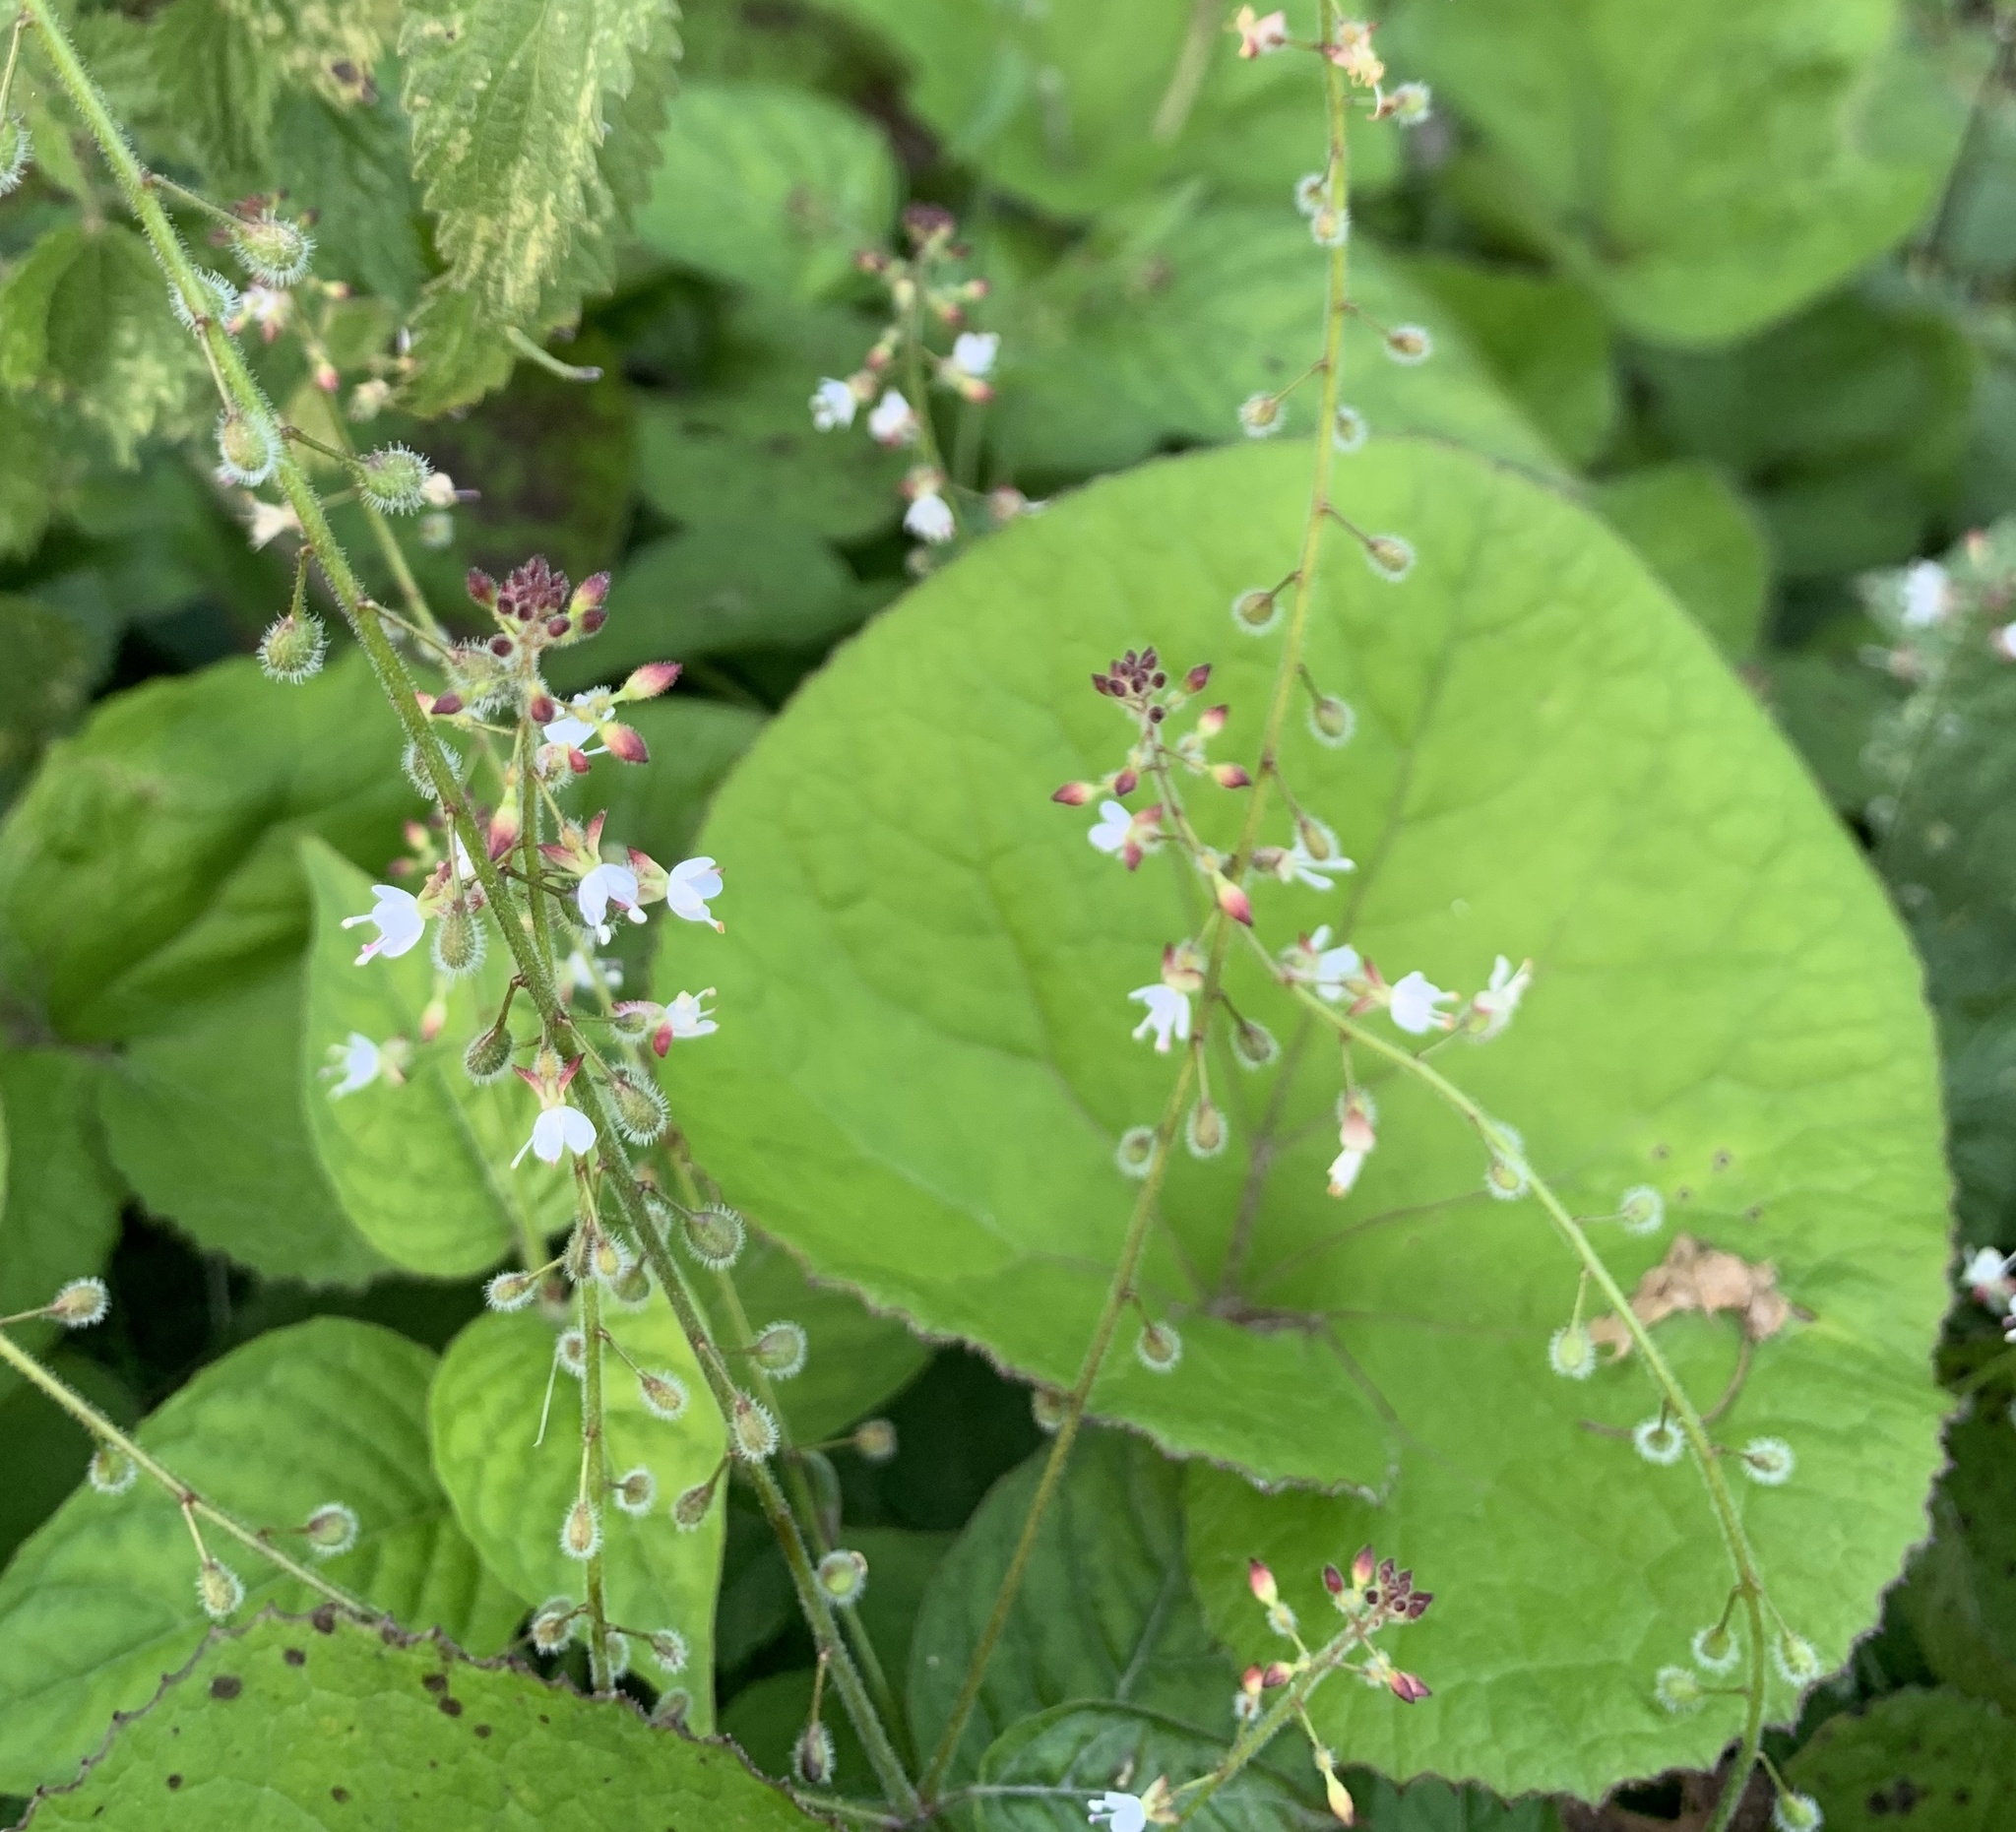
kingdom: Plantae
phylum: Tracheophyta
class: Magnoliopsida
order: Myrtales
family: Onagraceae
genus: Circaea
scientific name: Circaea lutetiana
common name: Enchanter's-nightshade
